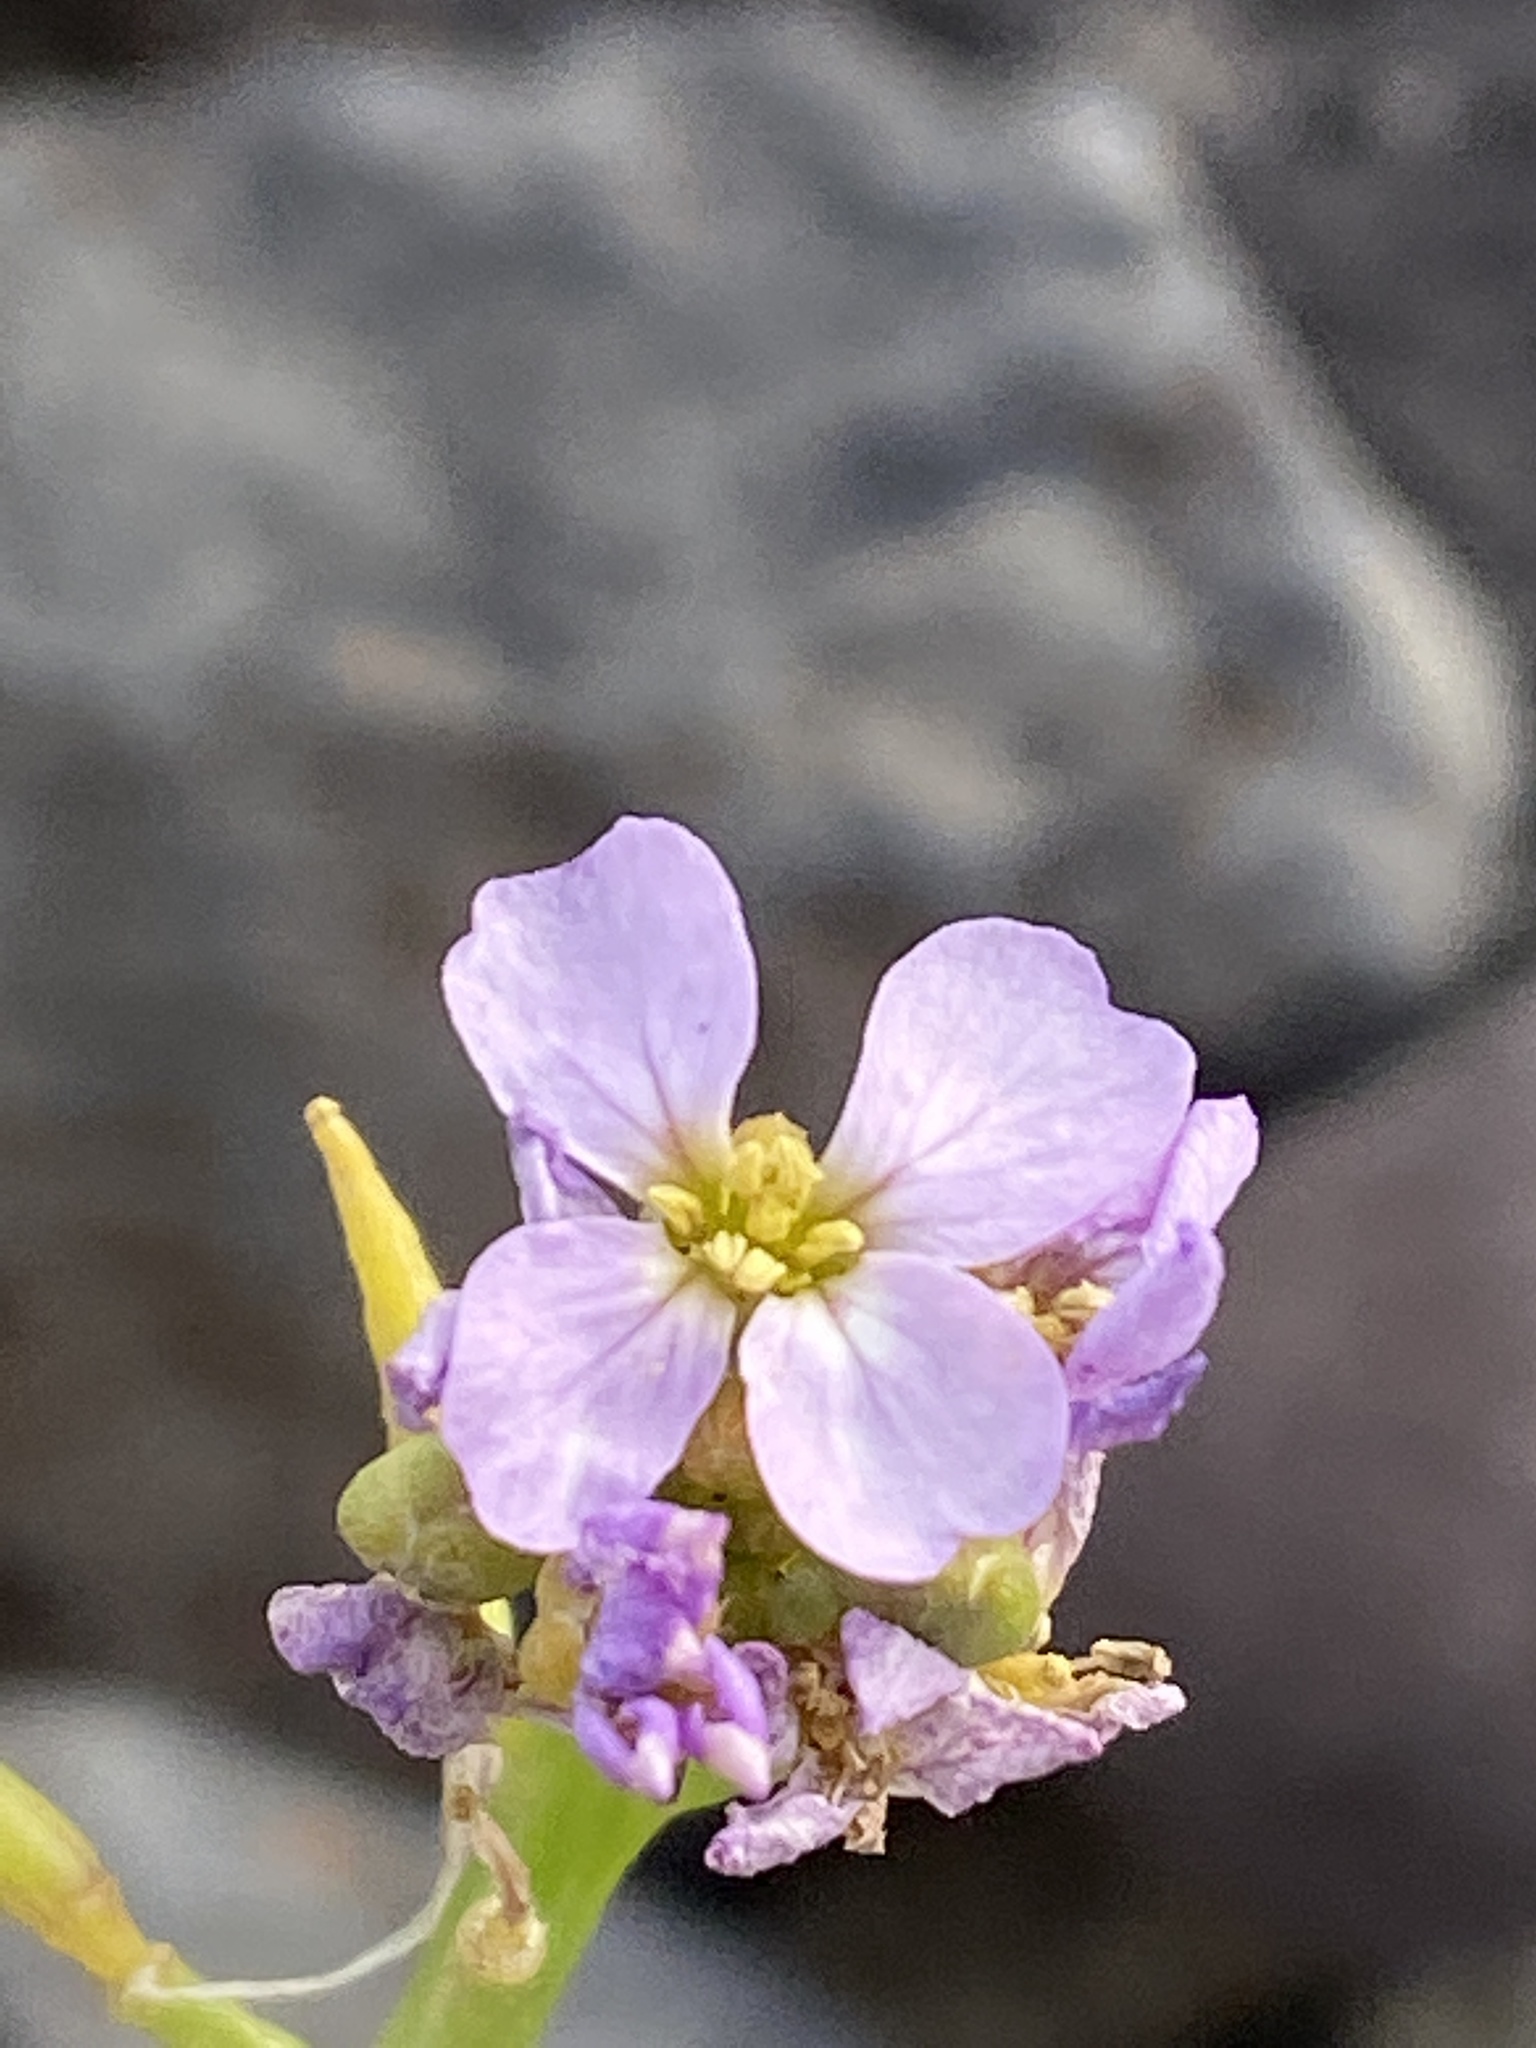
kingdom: Plantae
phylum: Tracheophyta
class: Magnoliopsida
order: Brassicales
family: Brassicaceae
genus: Cakile
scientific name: Cakile maritima
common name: Sea rocket
